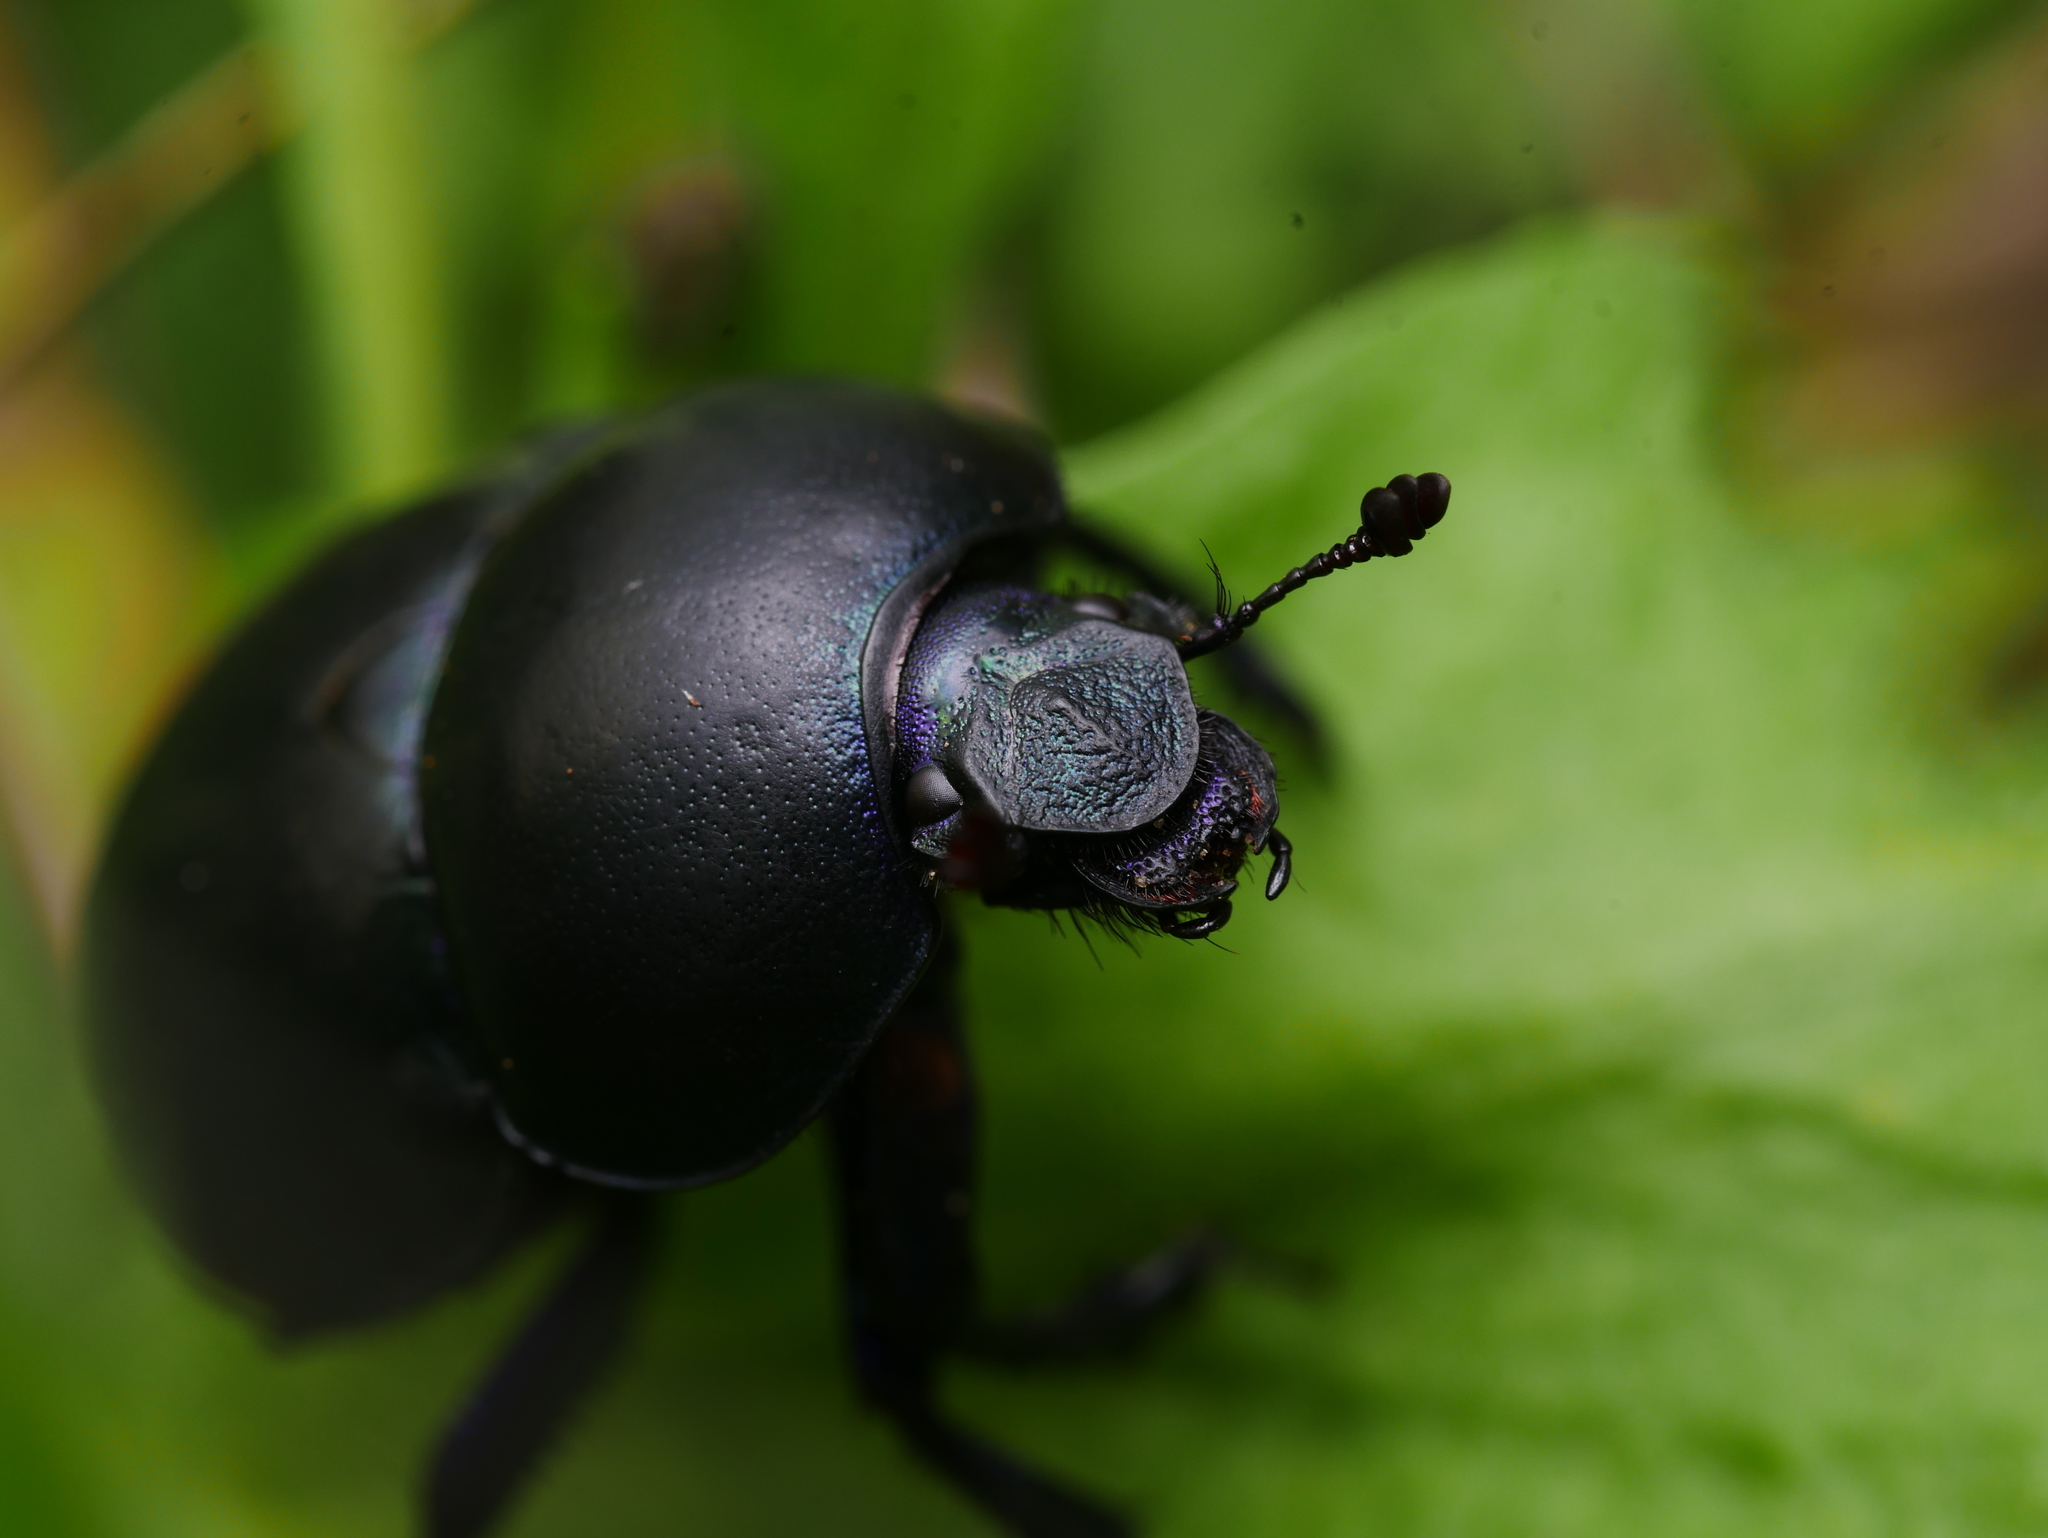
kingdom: Animalia
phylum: Arthropoda
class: Insecta
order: Coleoptera
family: Geotrupidae
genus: Trypocopris
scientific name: Trypocopris vernalis
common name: Spring dumbledor
